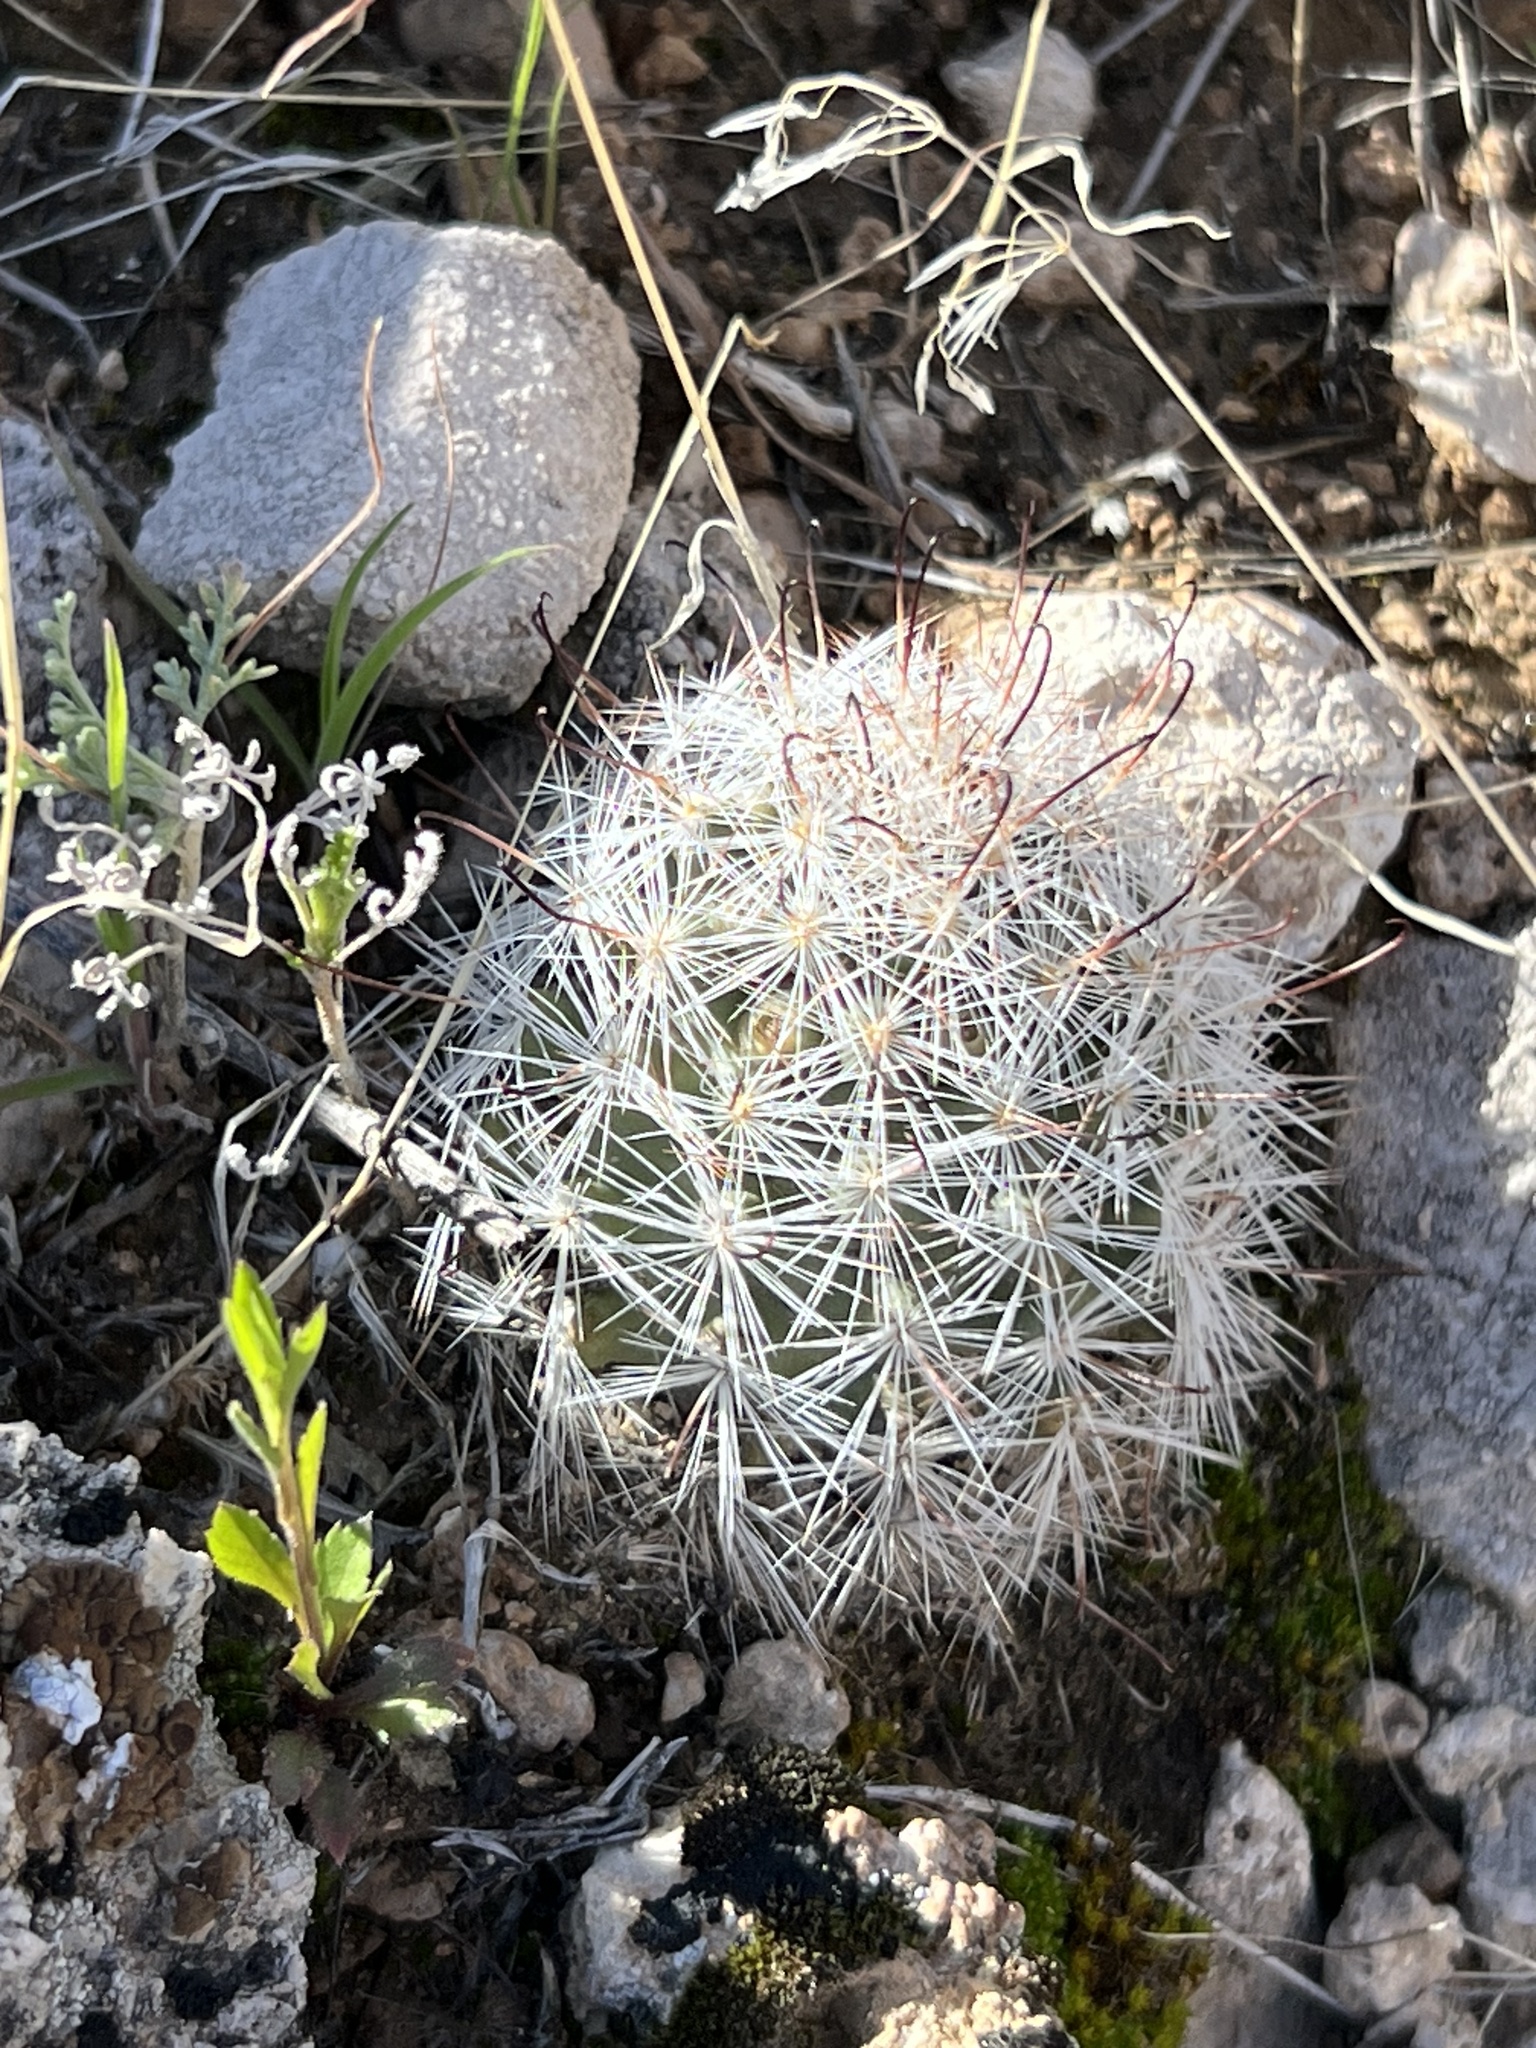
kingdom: Plantae
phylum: Tracheophyta
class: Magnoliopsida
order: Caryophyllales
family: Cactaceae
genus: Cochemiea
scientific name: Cochemiea tetrancistra
